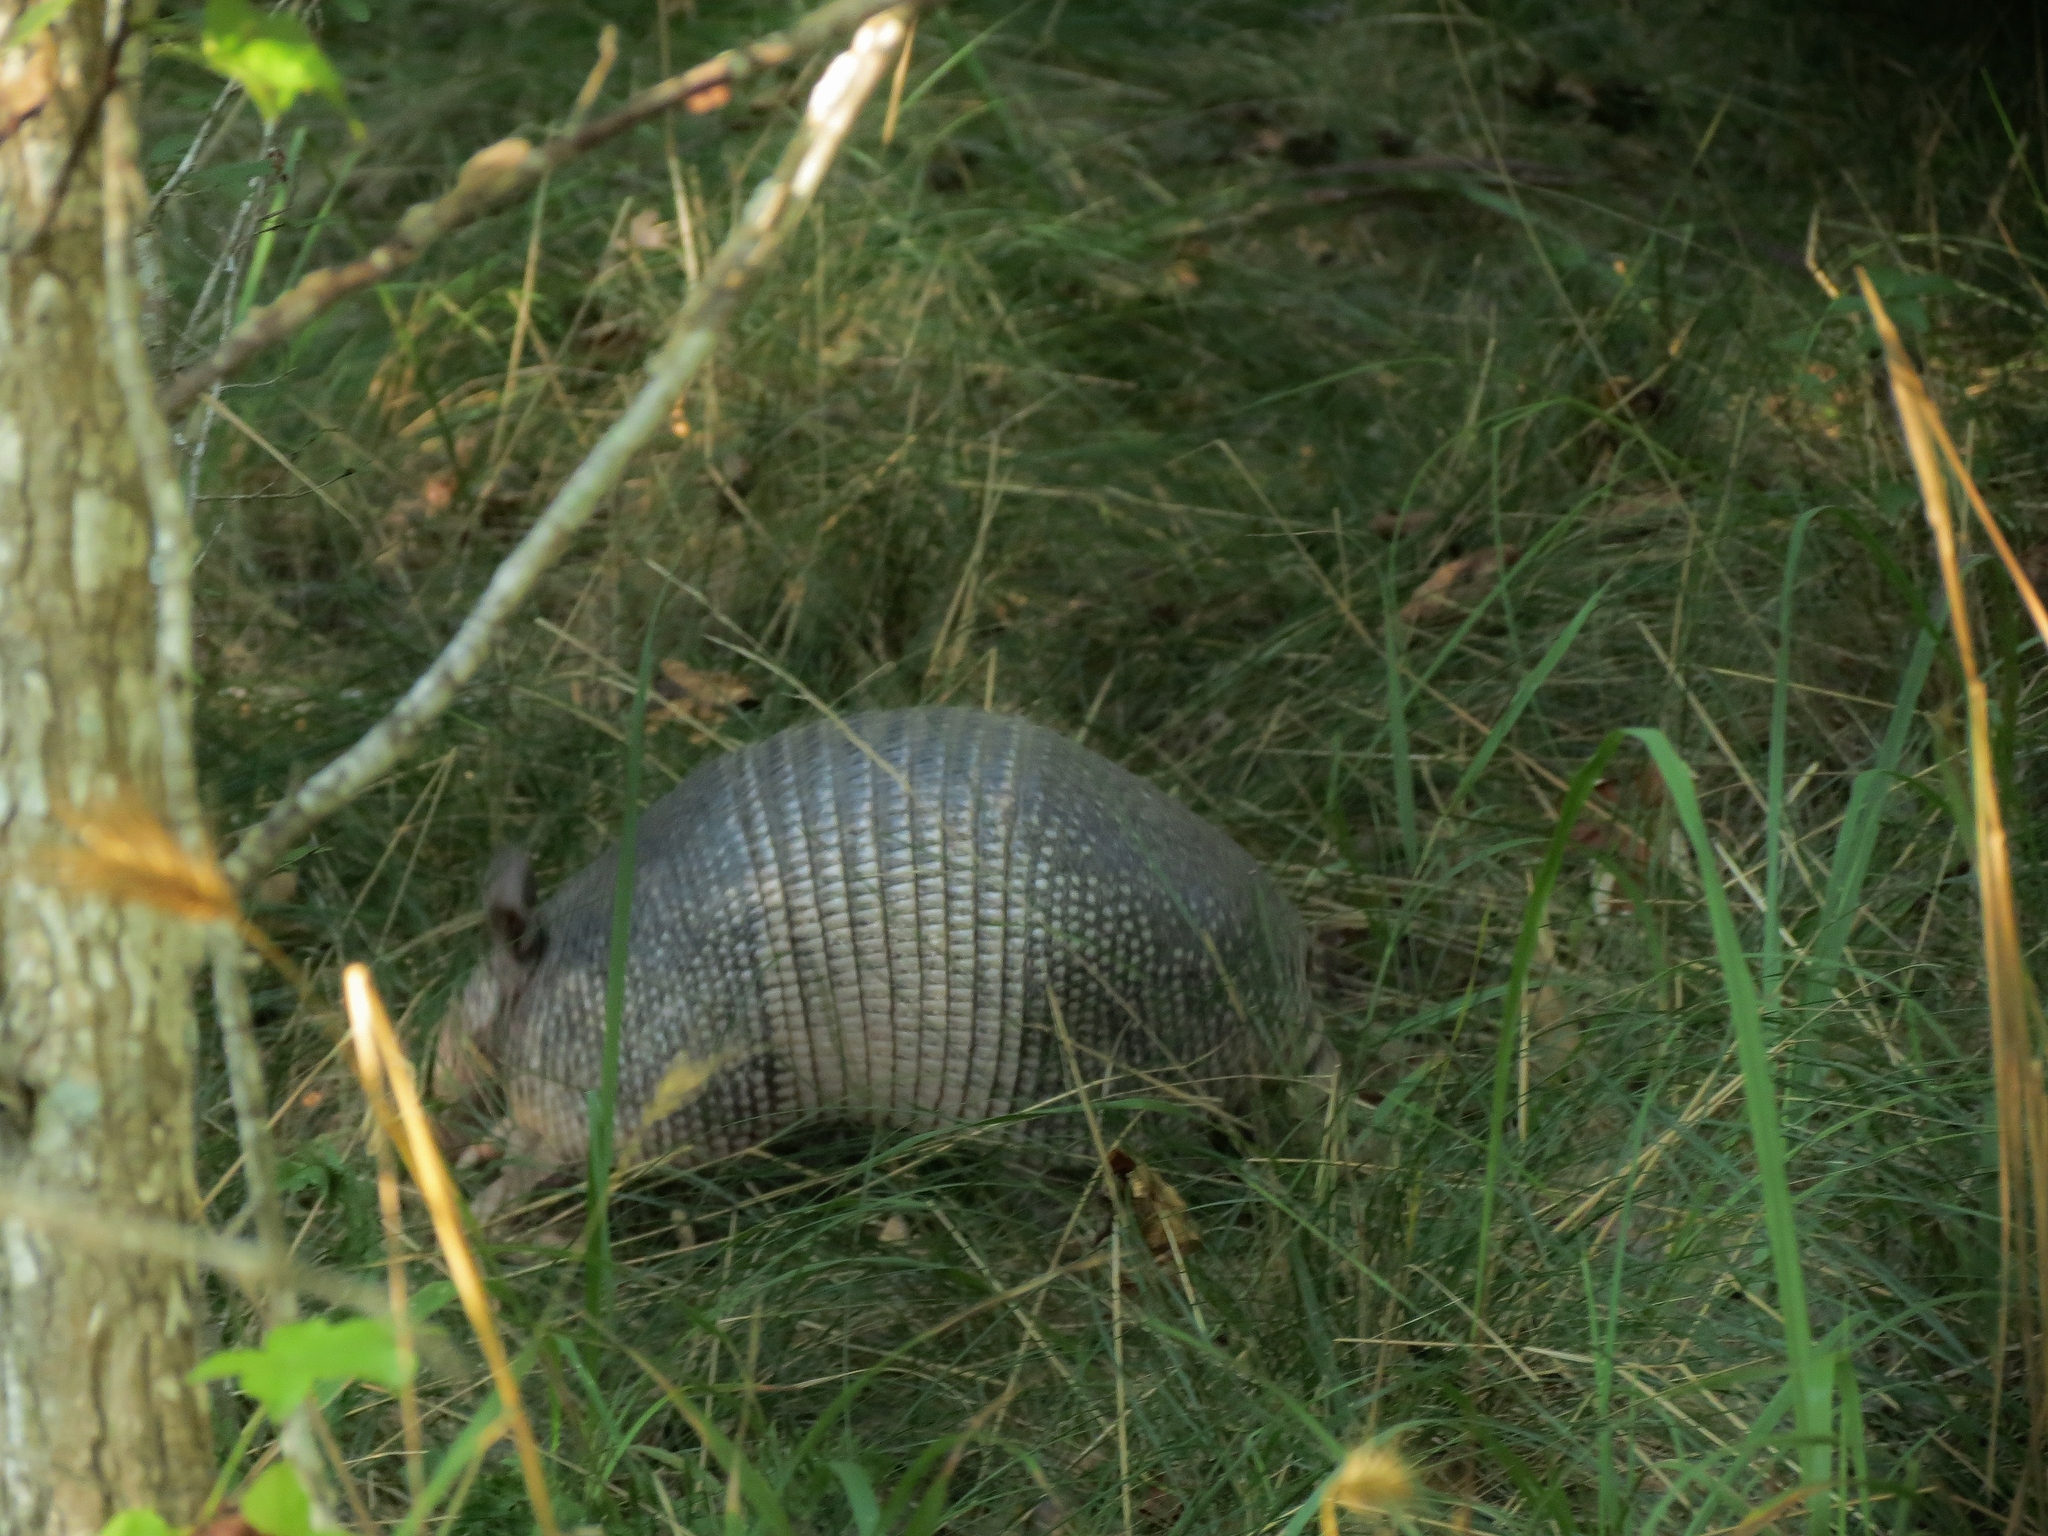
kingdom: Animalia
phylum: Chordata
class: Mammalia
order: Cingulata
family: Dasypodidae
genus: Dasypus
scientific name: Dasypus novemcinctus
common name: Nine-banded armadillo
